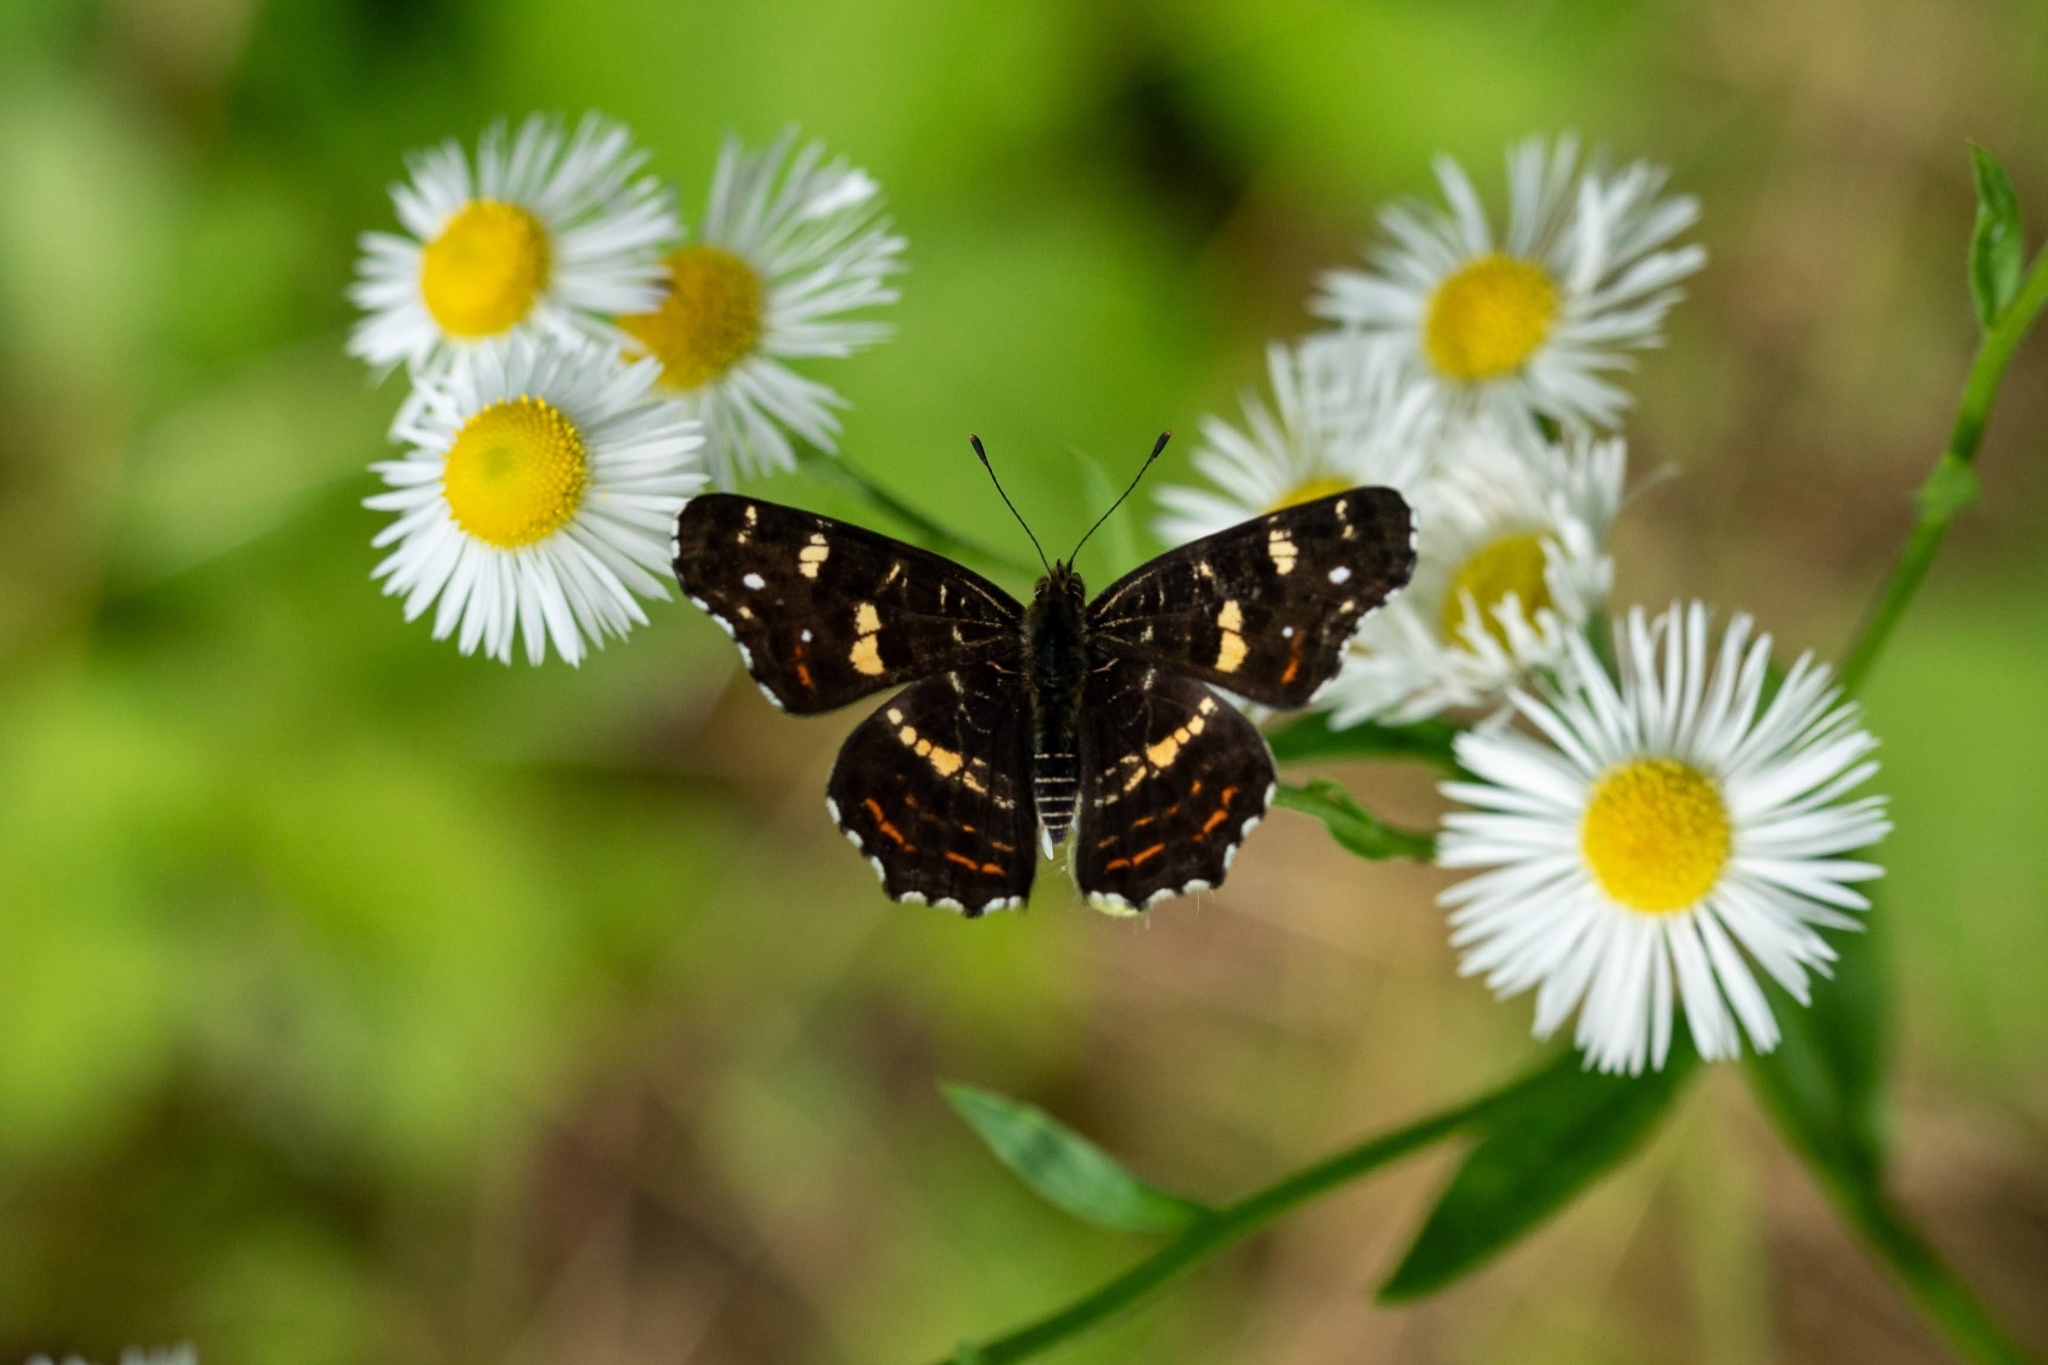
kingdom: Animalia
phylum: Arthropoda
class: Insecta
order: Lepidoptera
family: Nymphalidae
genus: Araschnia
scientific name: Araschnia levana
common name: Map butterfly
